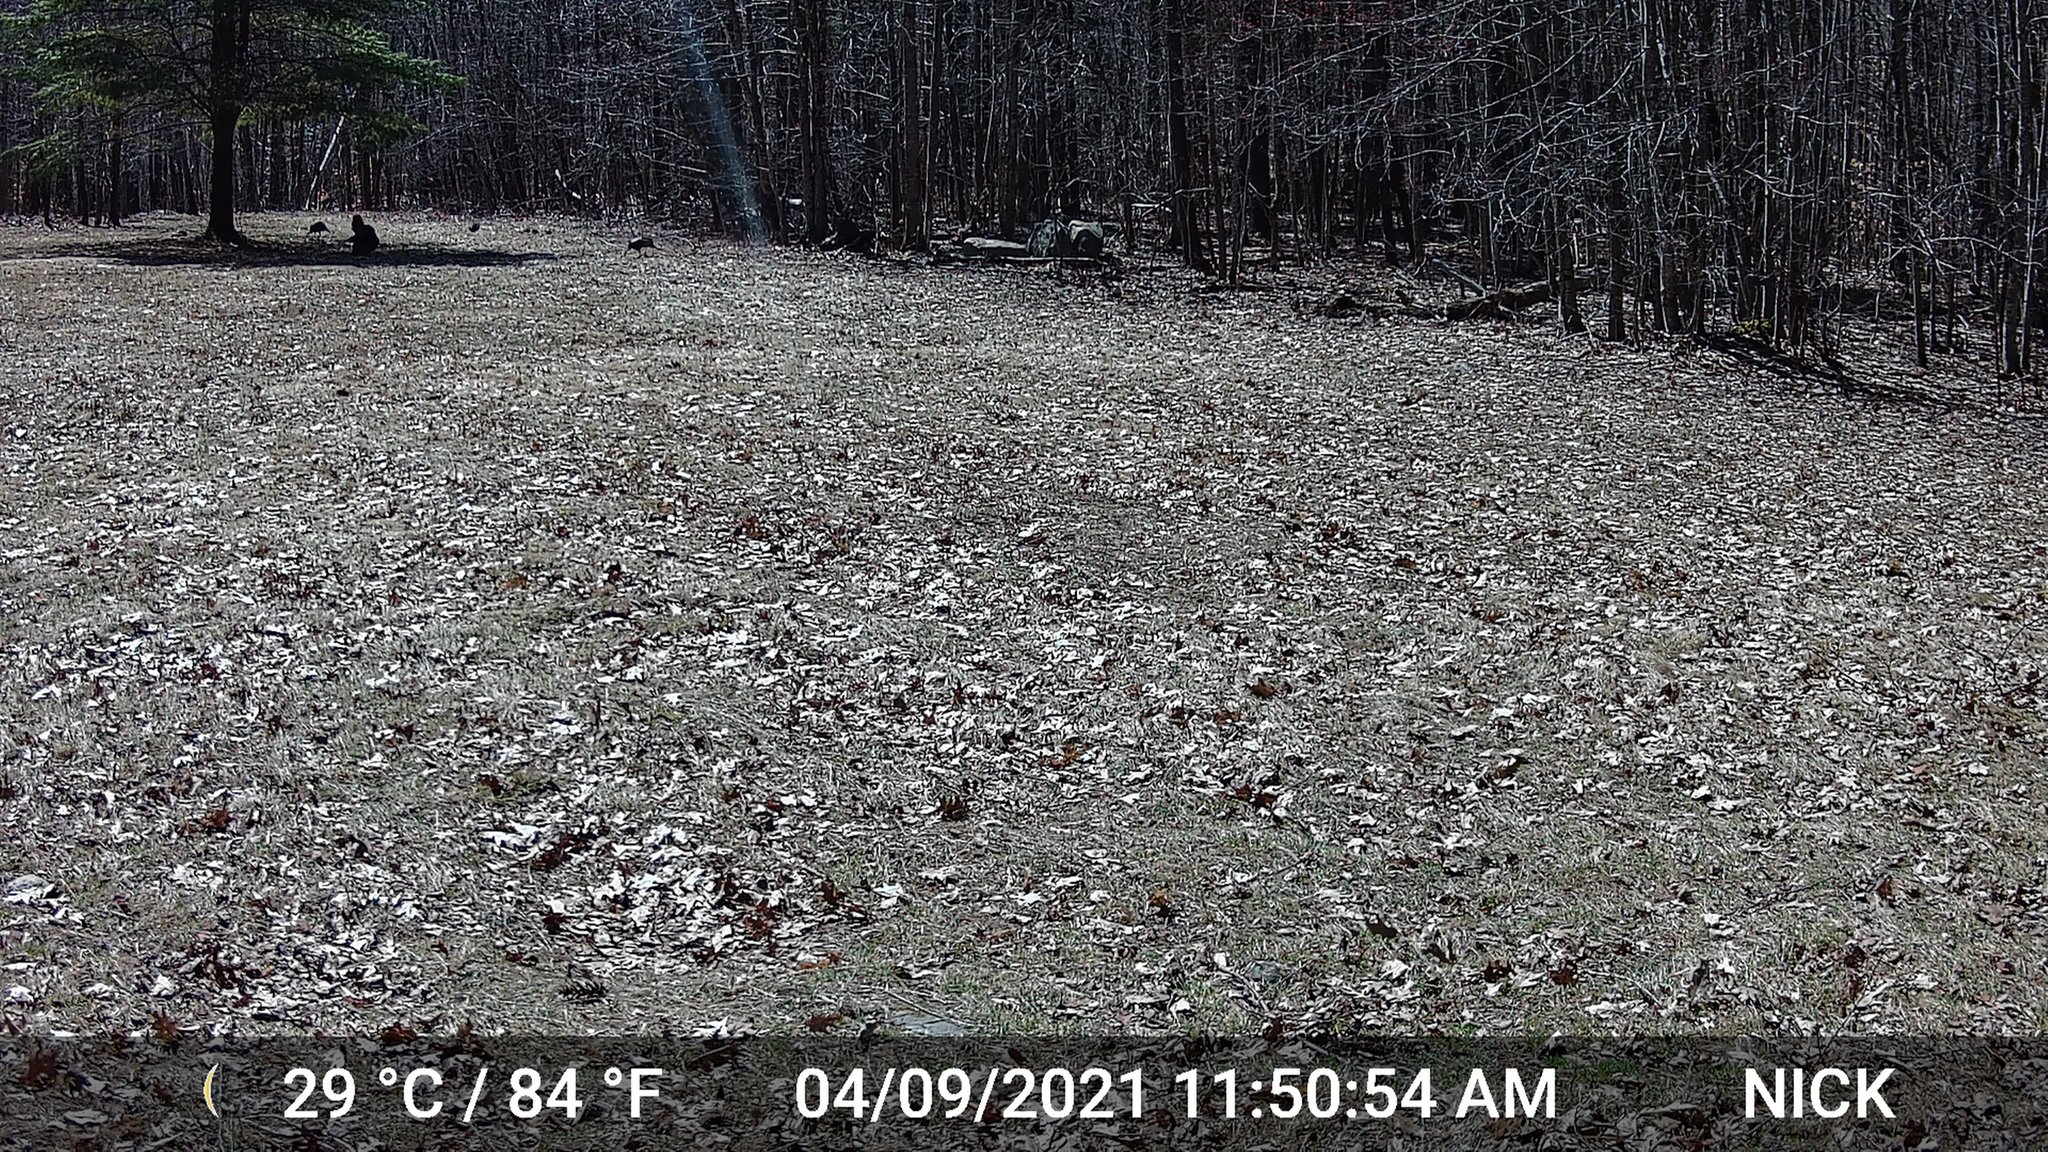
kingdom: Animalia
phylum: Chordata
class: Aves
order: Galliformes
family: Phasianidae
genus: Meleagris
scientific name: Meleagris gallopavo
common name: Wild turkey
